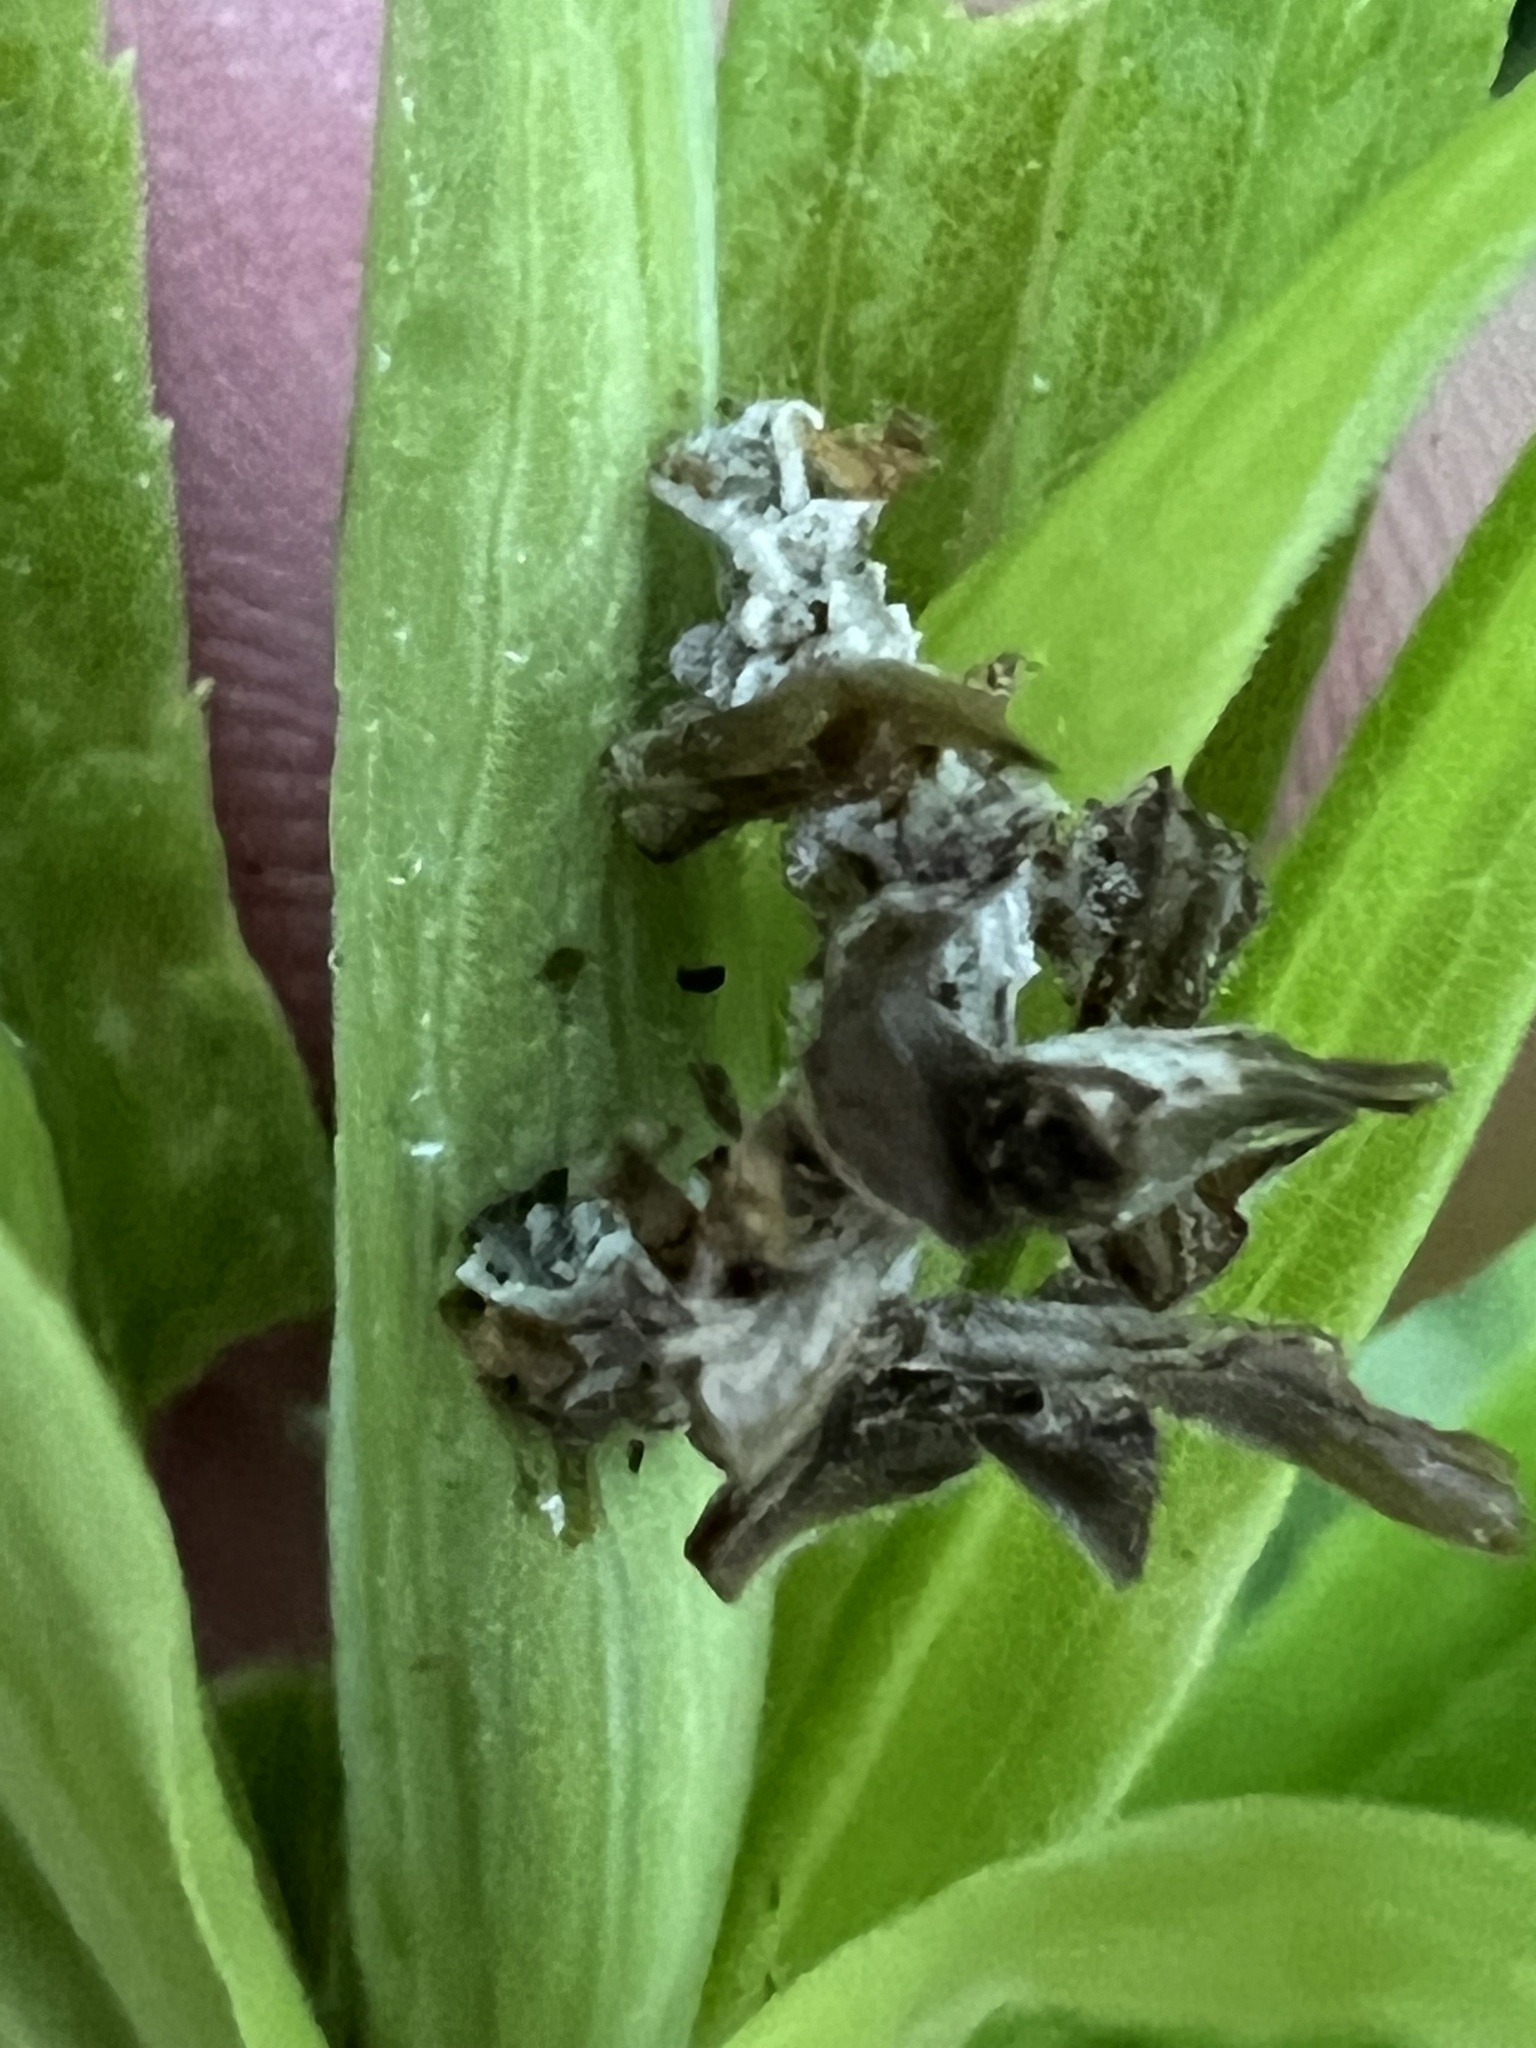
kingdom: Animalia
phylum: Arthropoda
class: Insecta
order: Lepidoptera
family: Geometridae
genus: Synchlora
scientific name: Synchlora
